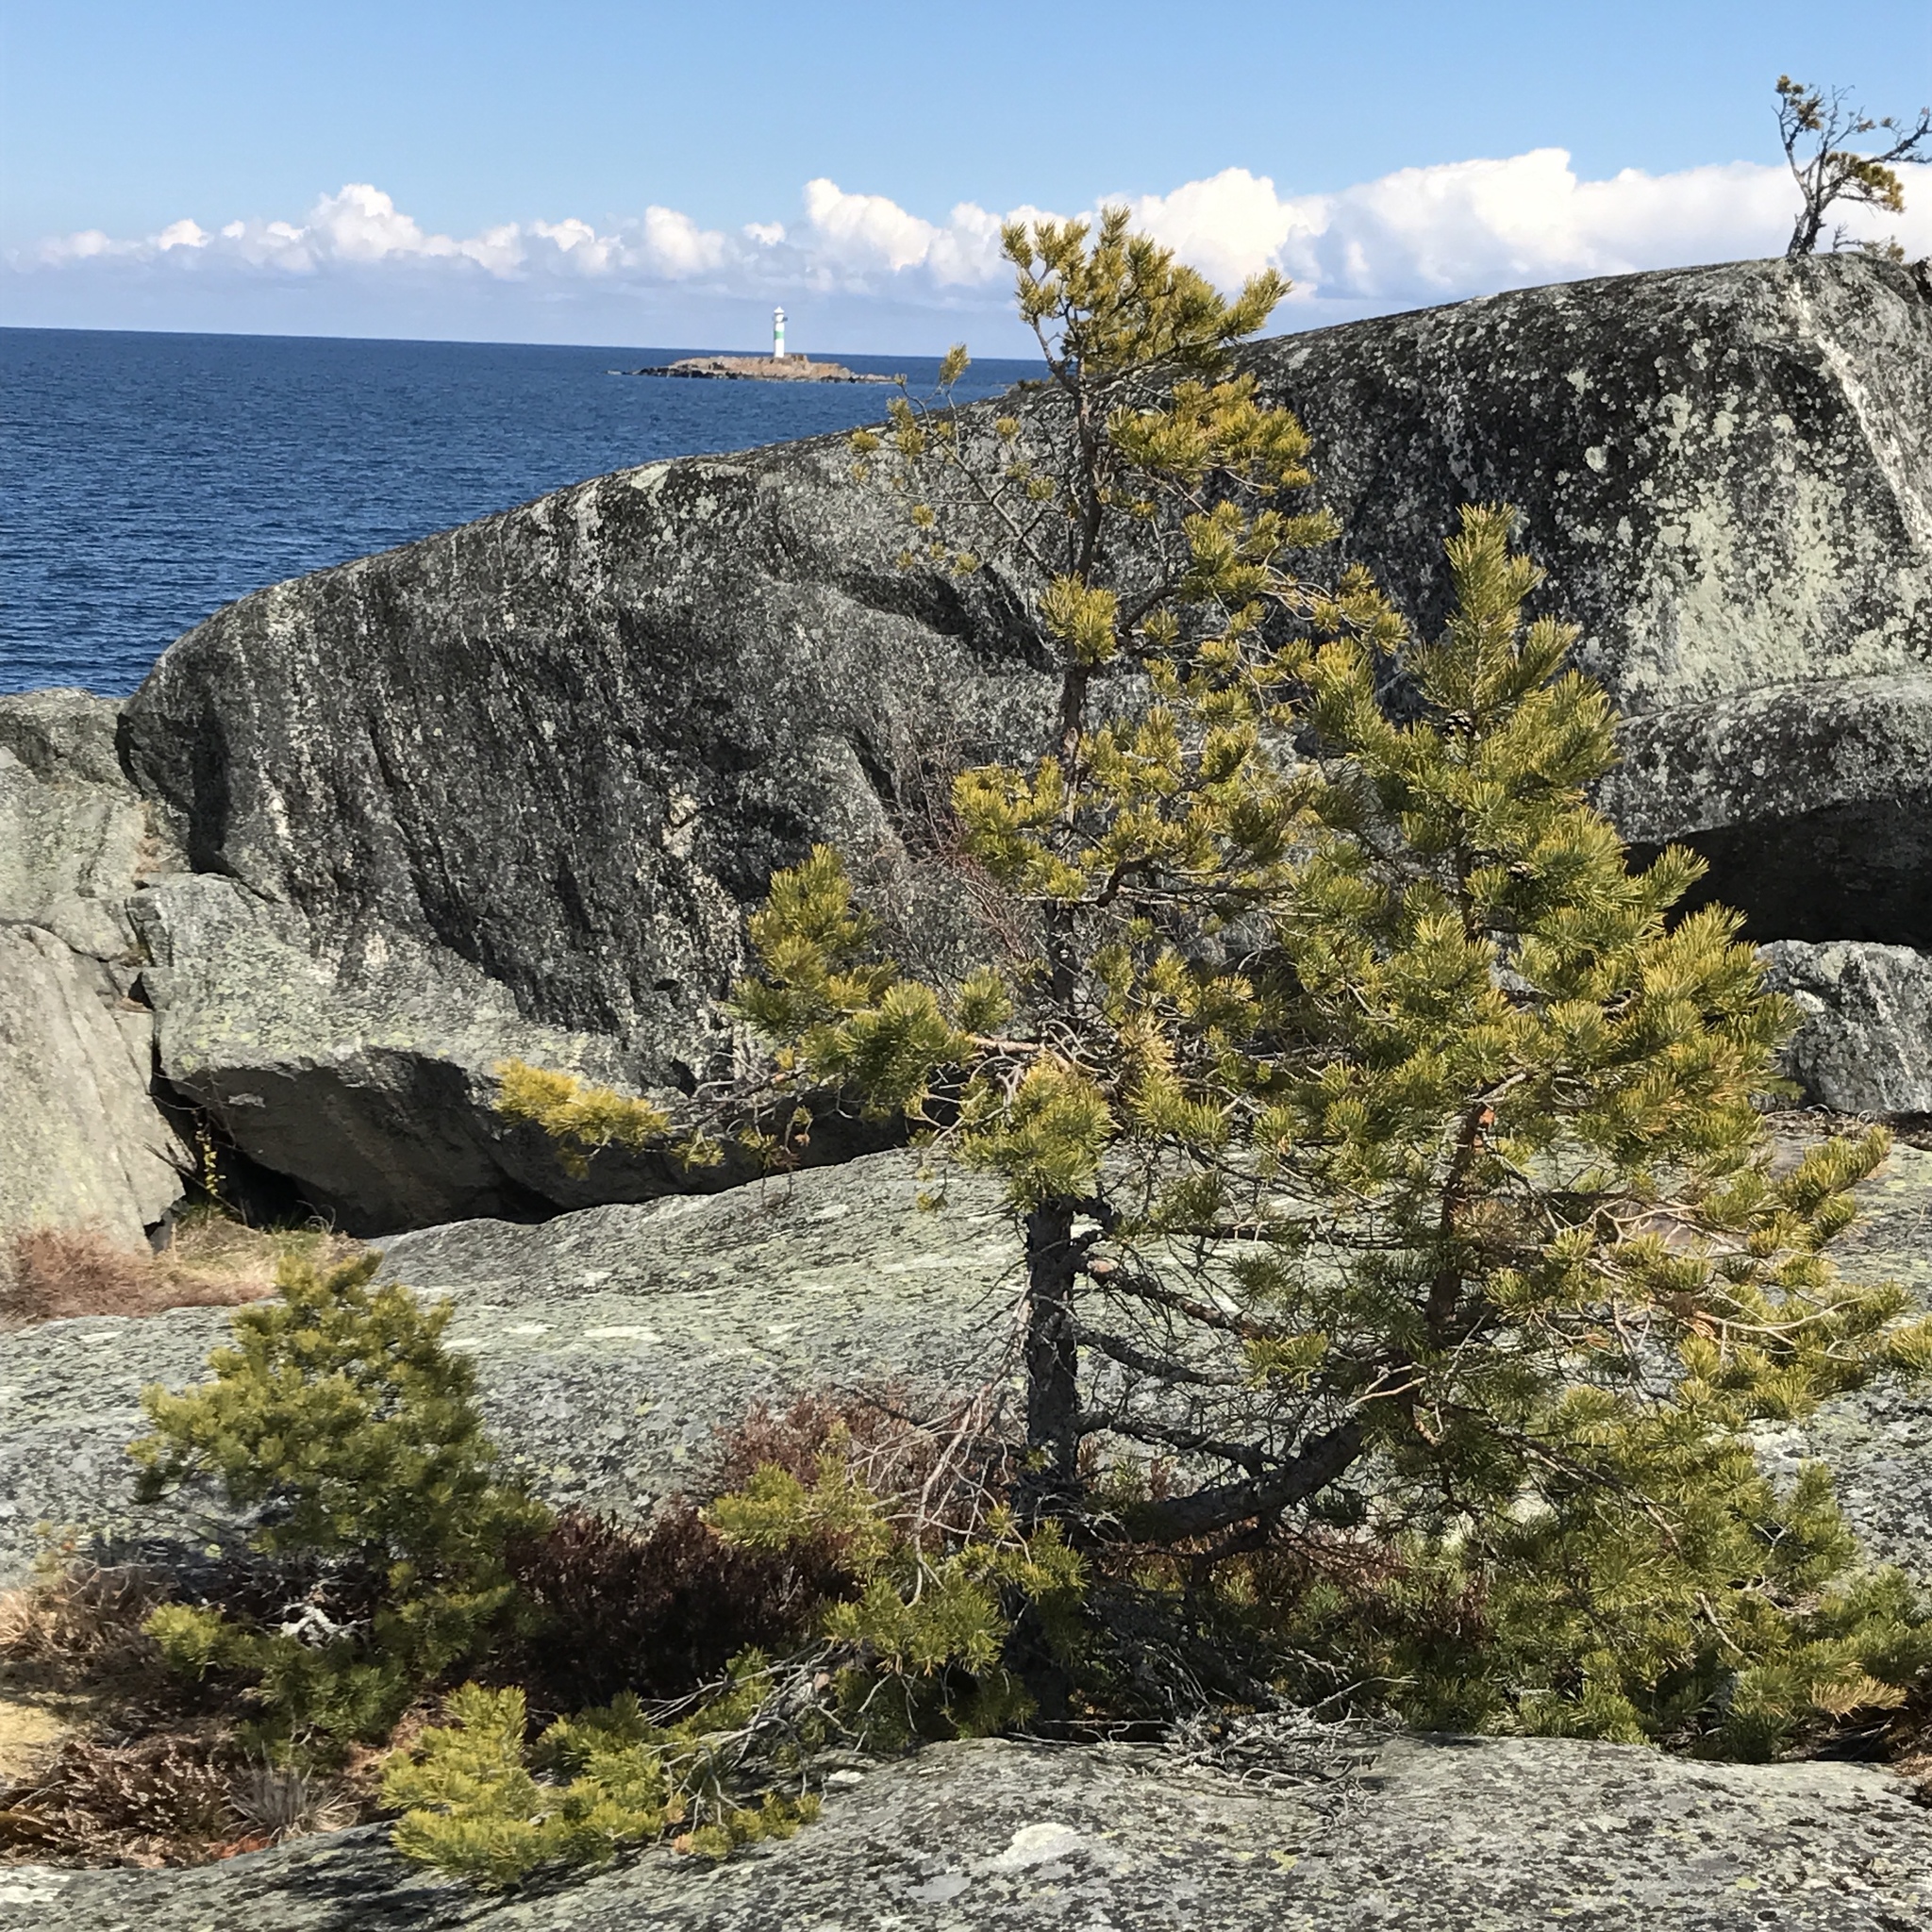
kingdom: Plantae
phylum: Tracheophyta
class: Pinopsida
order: Pinales
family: Pinaceae
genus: Pinus
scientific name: Pinus sylvestris
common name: Scots pine
